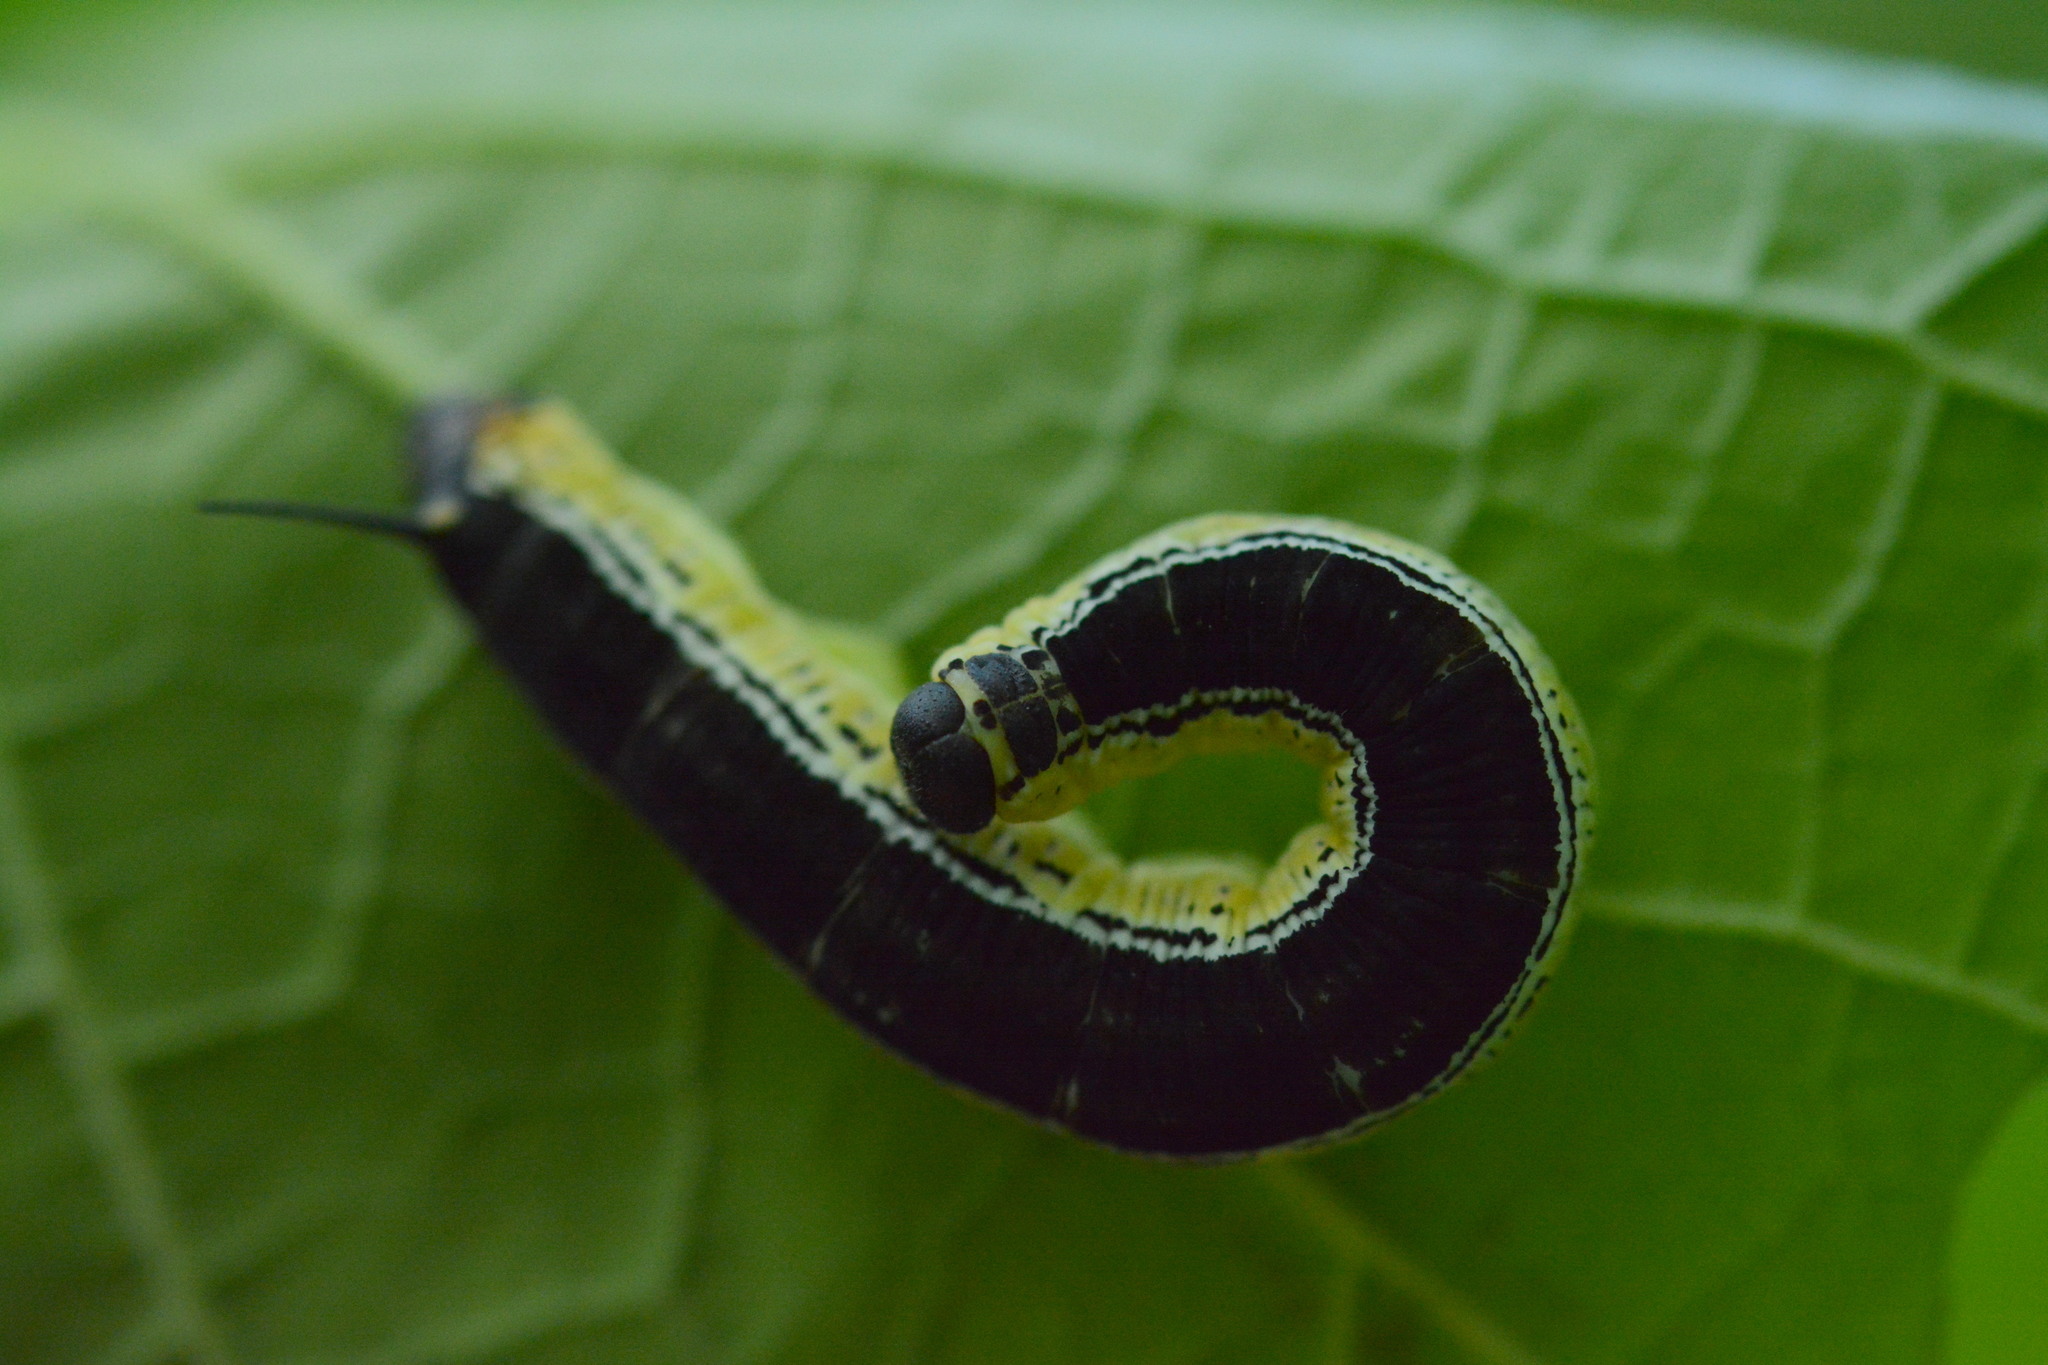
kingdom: Animalia
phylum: Arthropoda
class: Insecta
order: Lepidoptera
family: Sphingidae
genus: Ceratomia
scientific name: Ceratomia catalpae
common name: Catalpa hornworm
